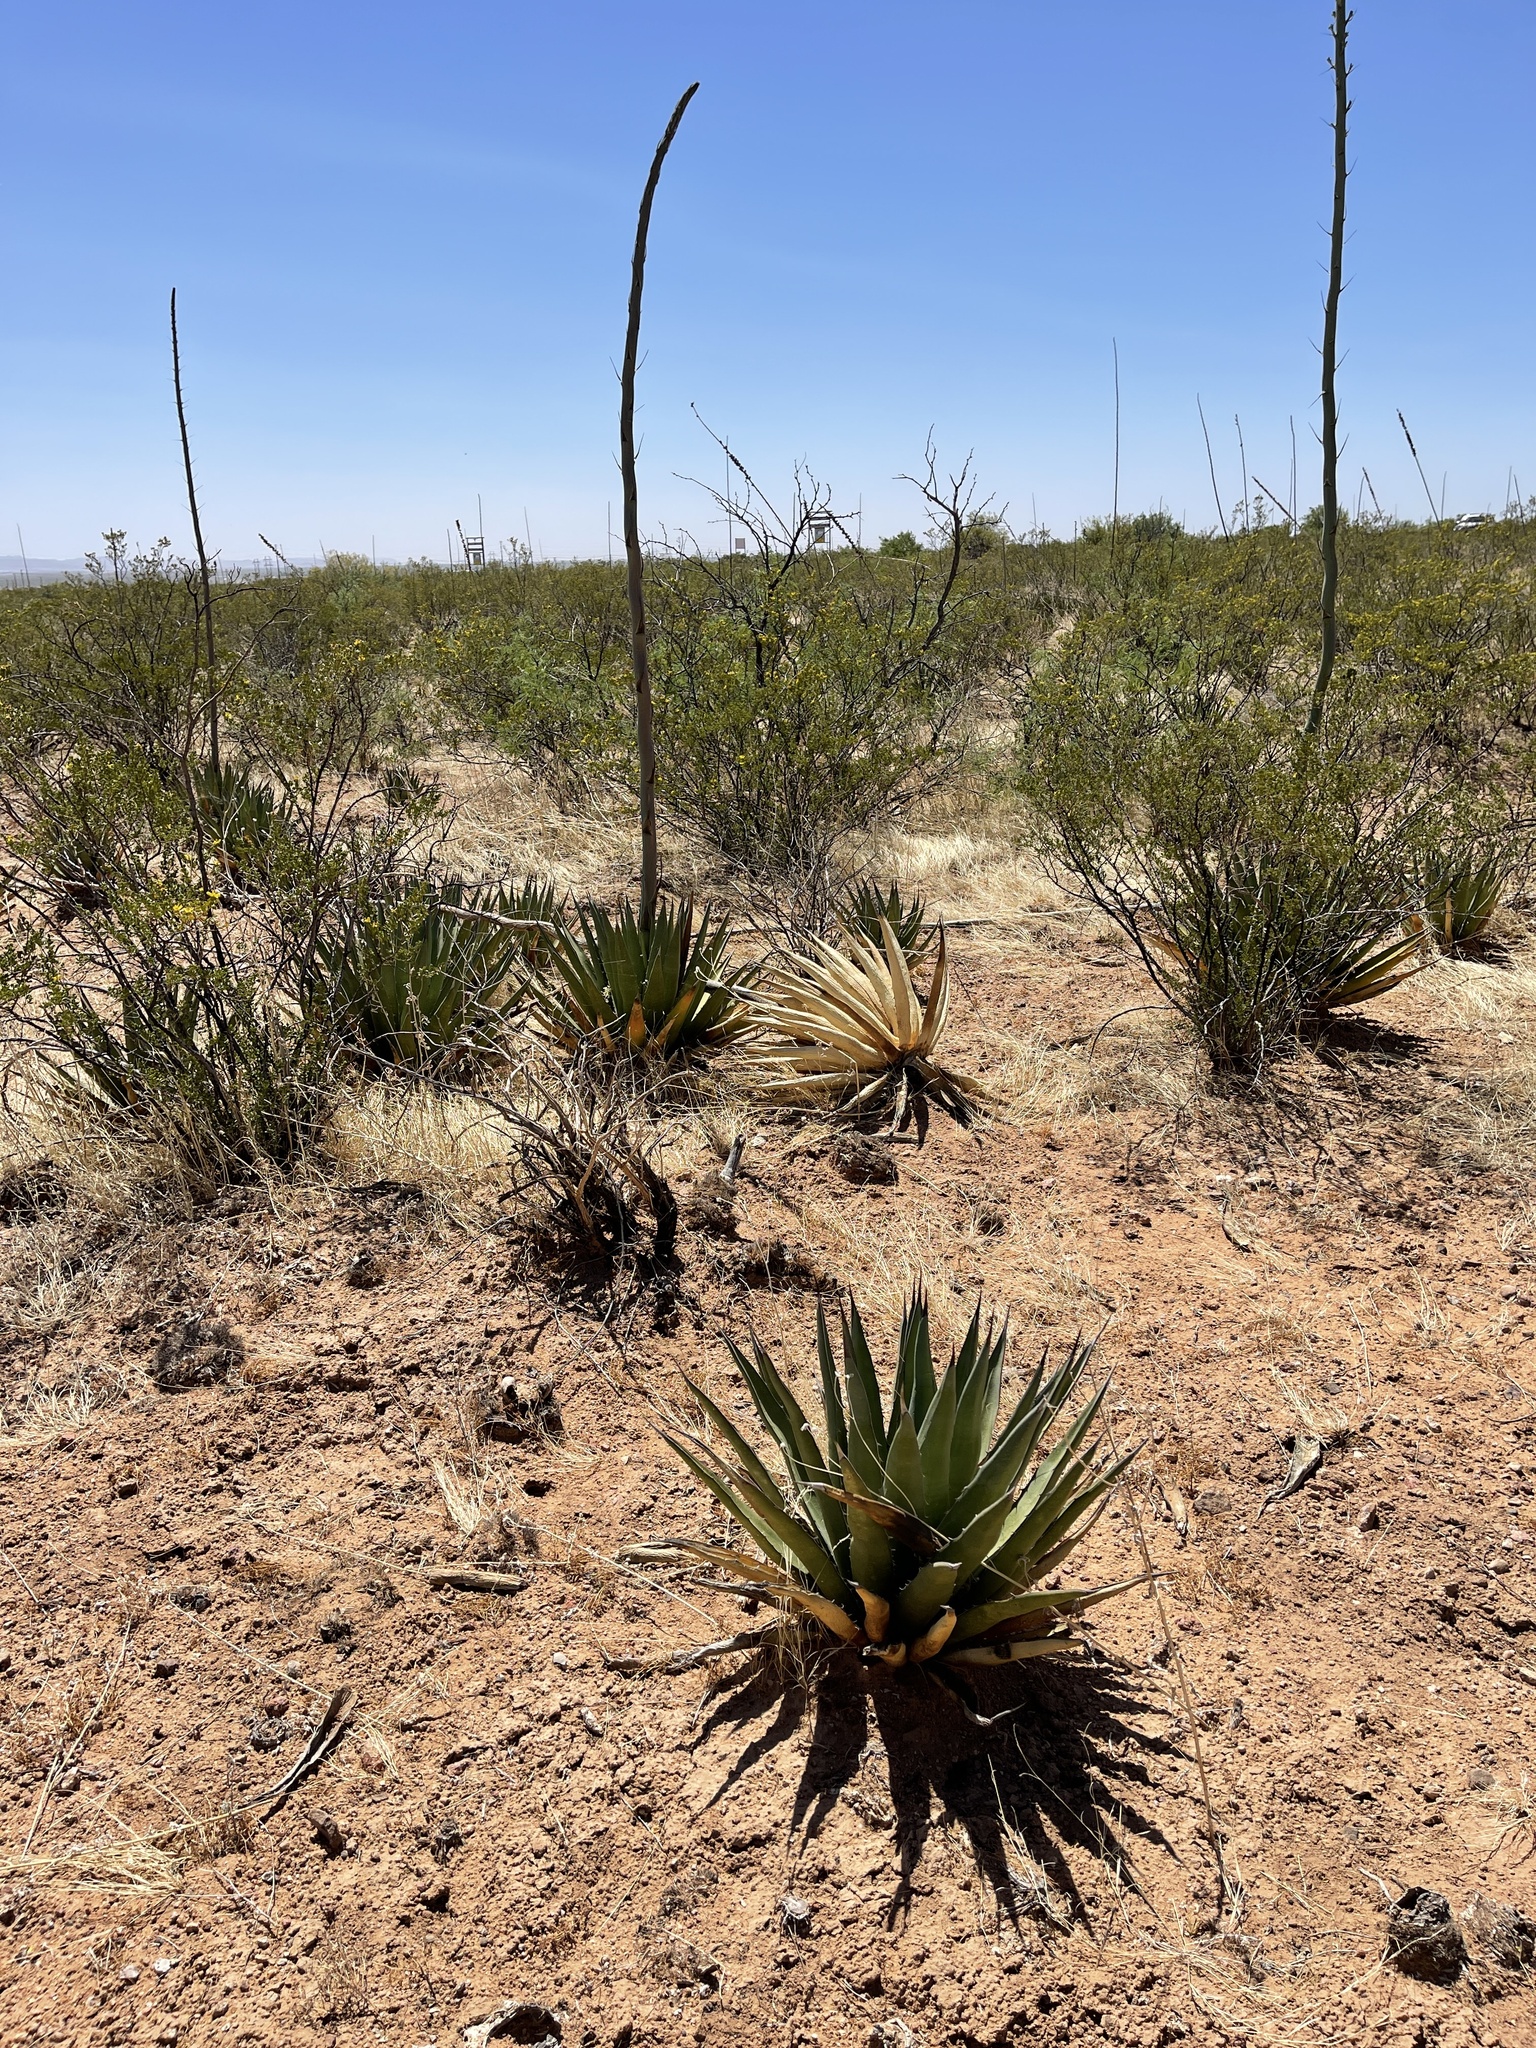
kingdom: Plantae
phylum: Tracheophyta
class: Liliopsida
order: Asparagales
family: Asparagaceae
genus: Agave
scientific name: Agave lechuguilla
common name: Lecheguilla agave
